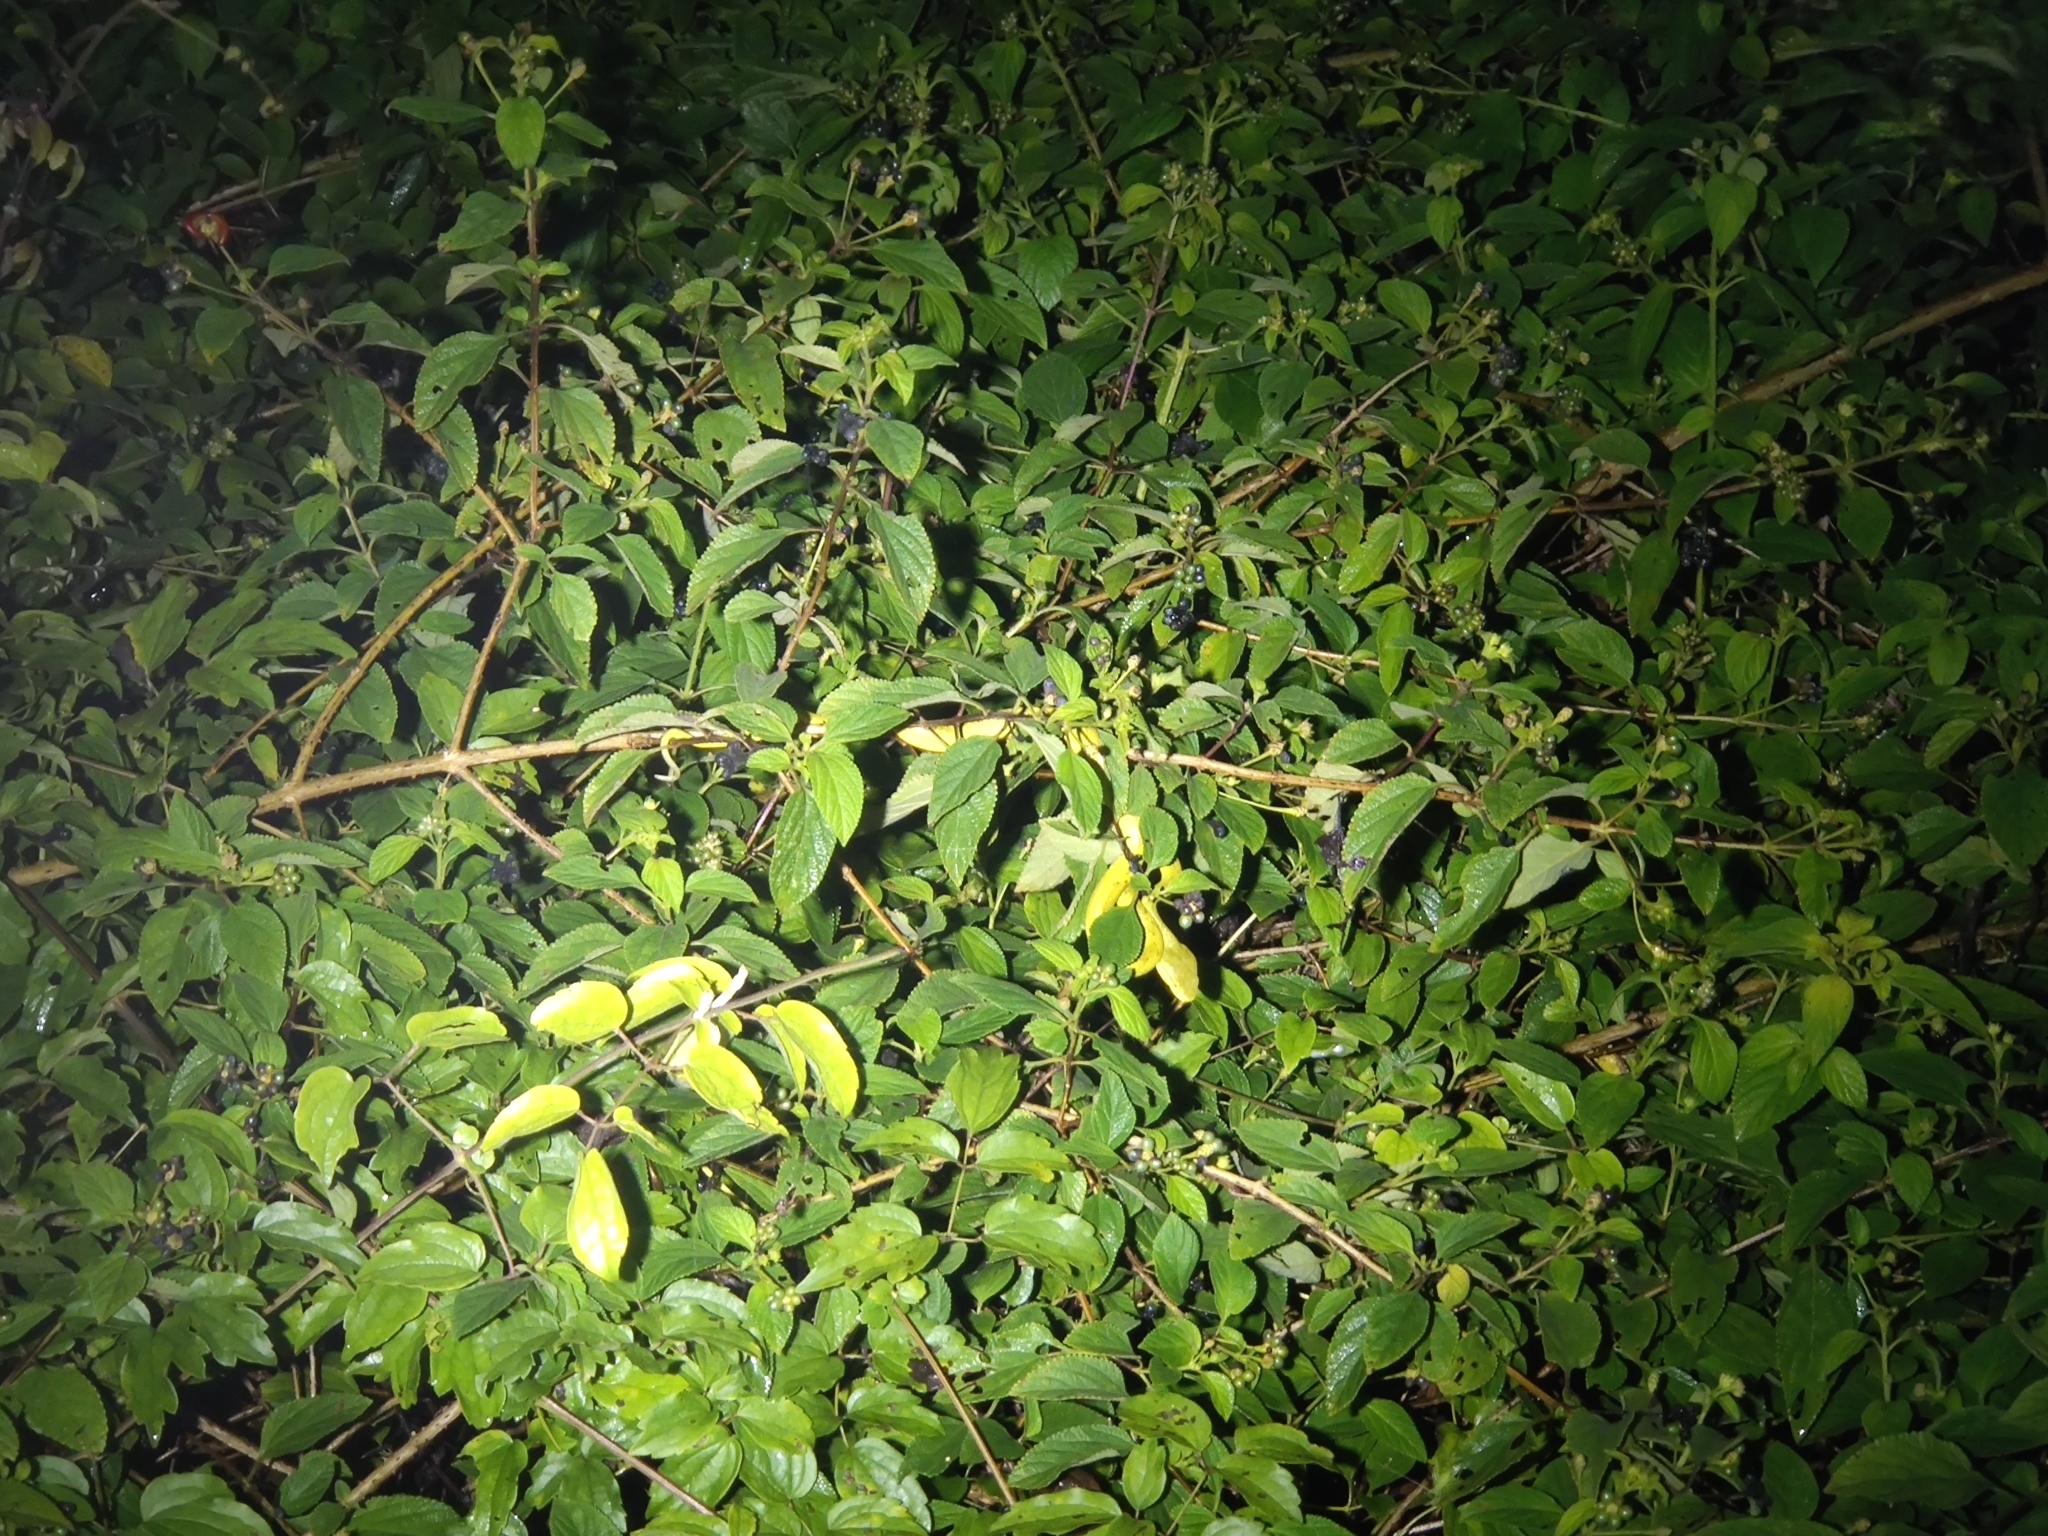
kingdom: Animalia
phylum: Chordata
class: Squamata
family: Viperidae
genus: Craspedocephalus
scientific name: Craspedocephalus gramineus
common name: Common bamboo viper
